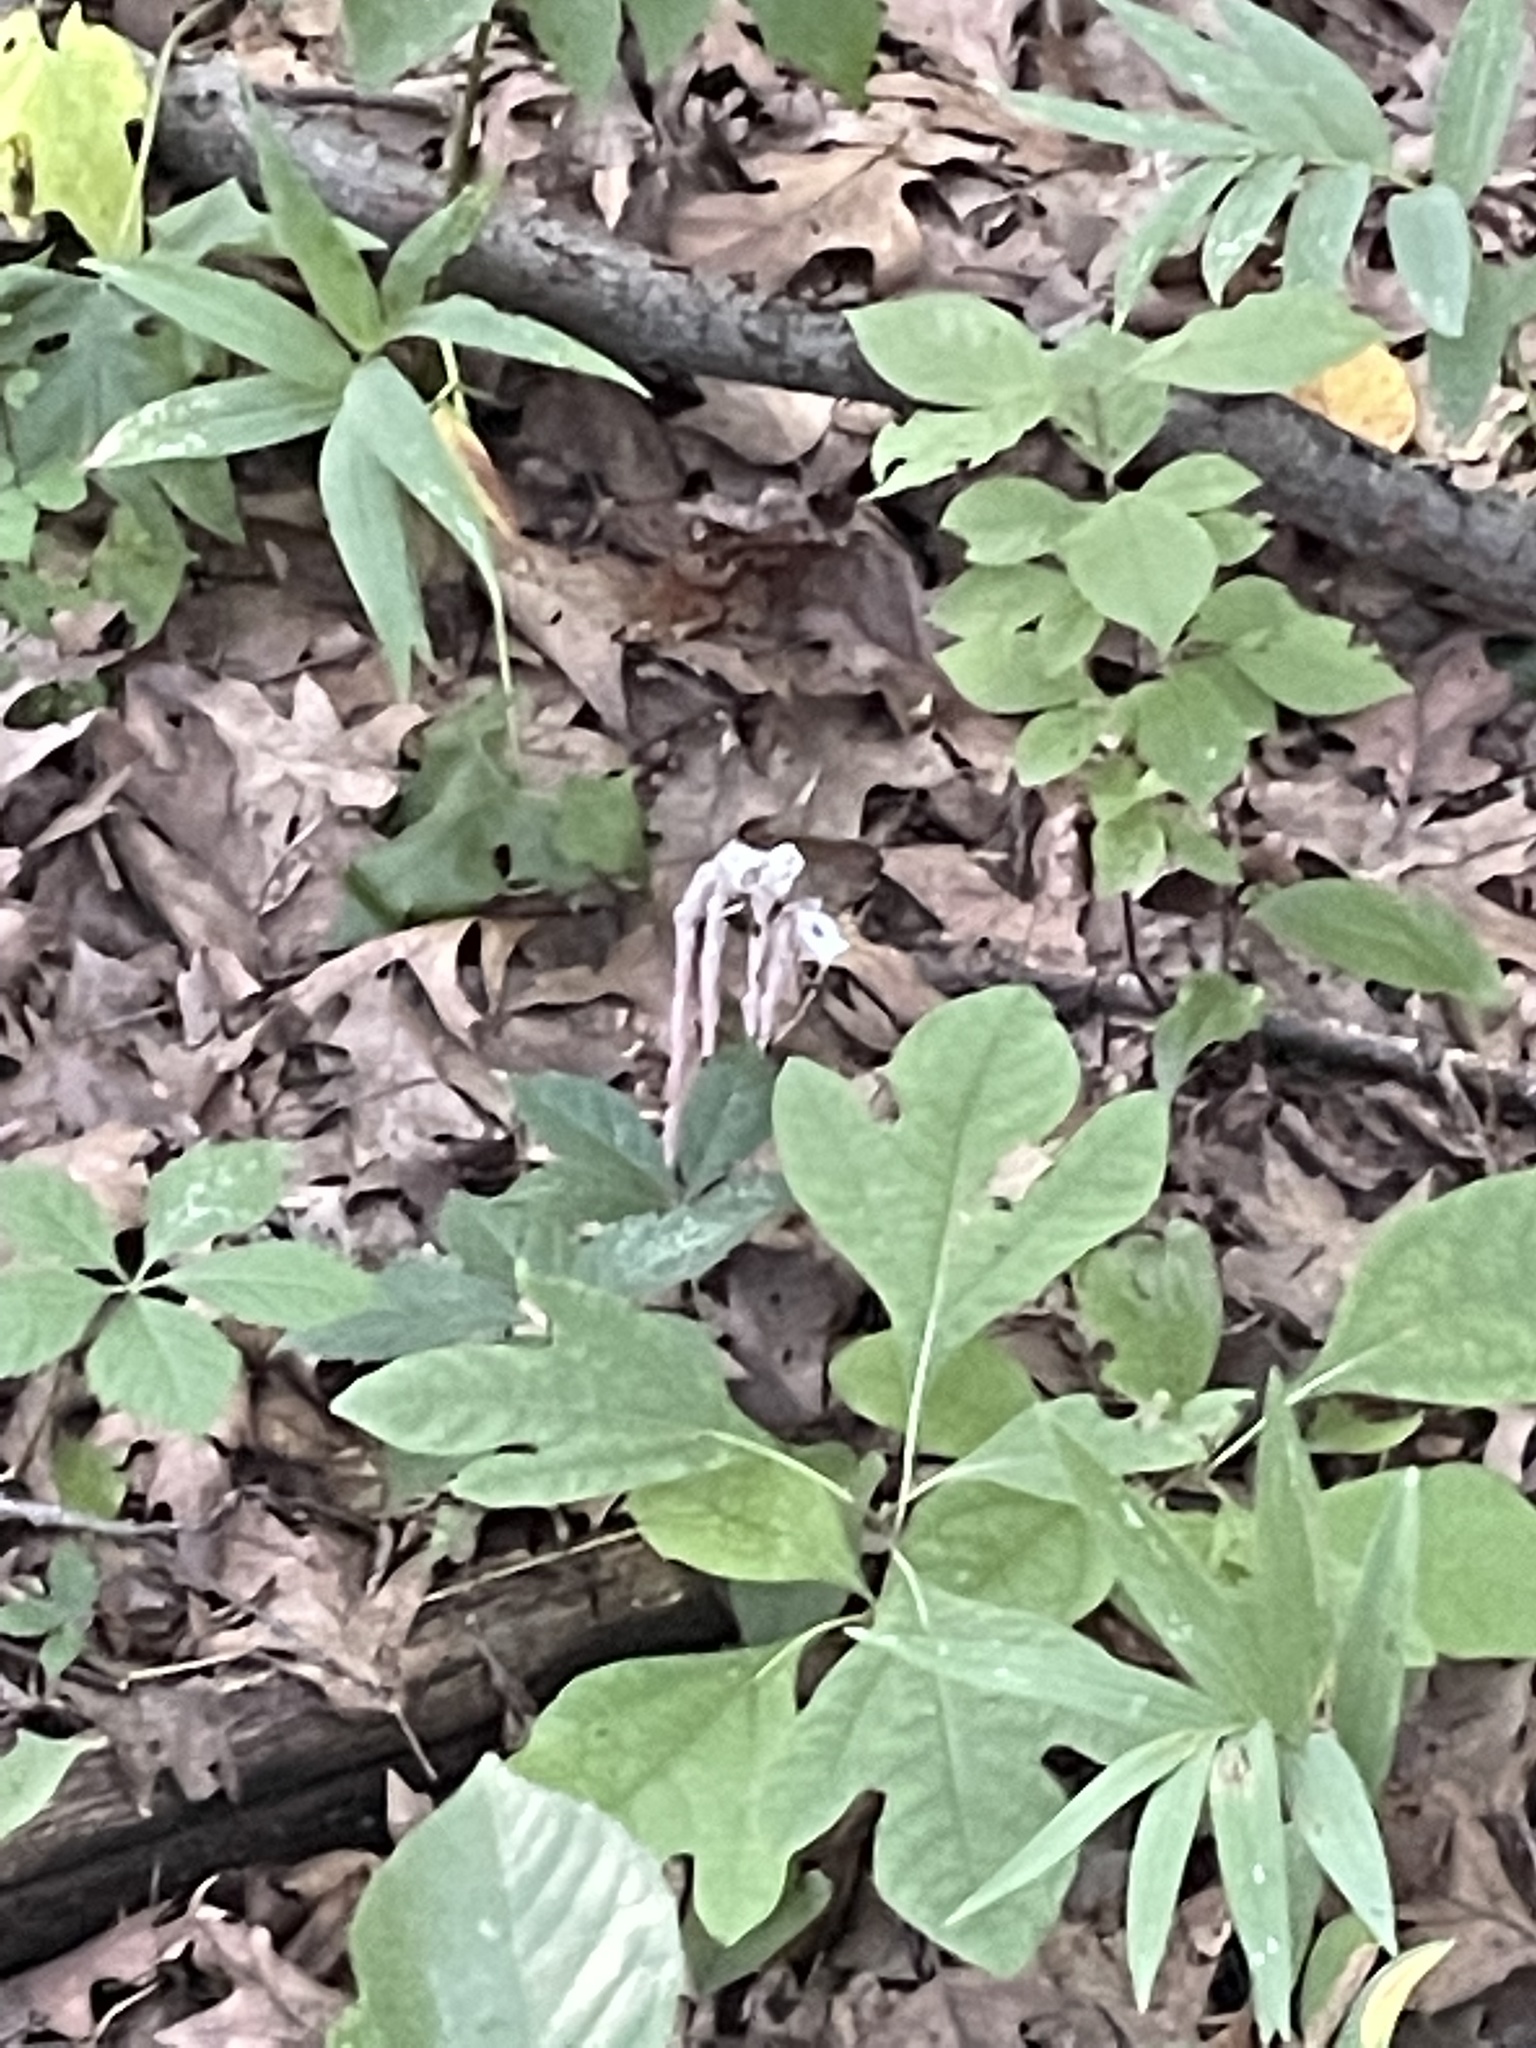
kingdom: Plantae
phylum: Tracheophyta
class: Magnoliopsida
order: Ericales
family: Ericaceae
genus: Monotropa
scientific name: Monotropa uniflora
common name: Convulsion root
